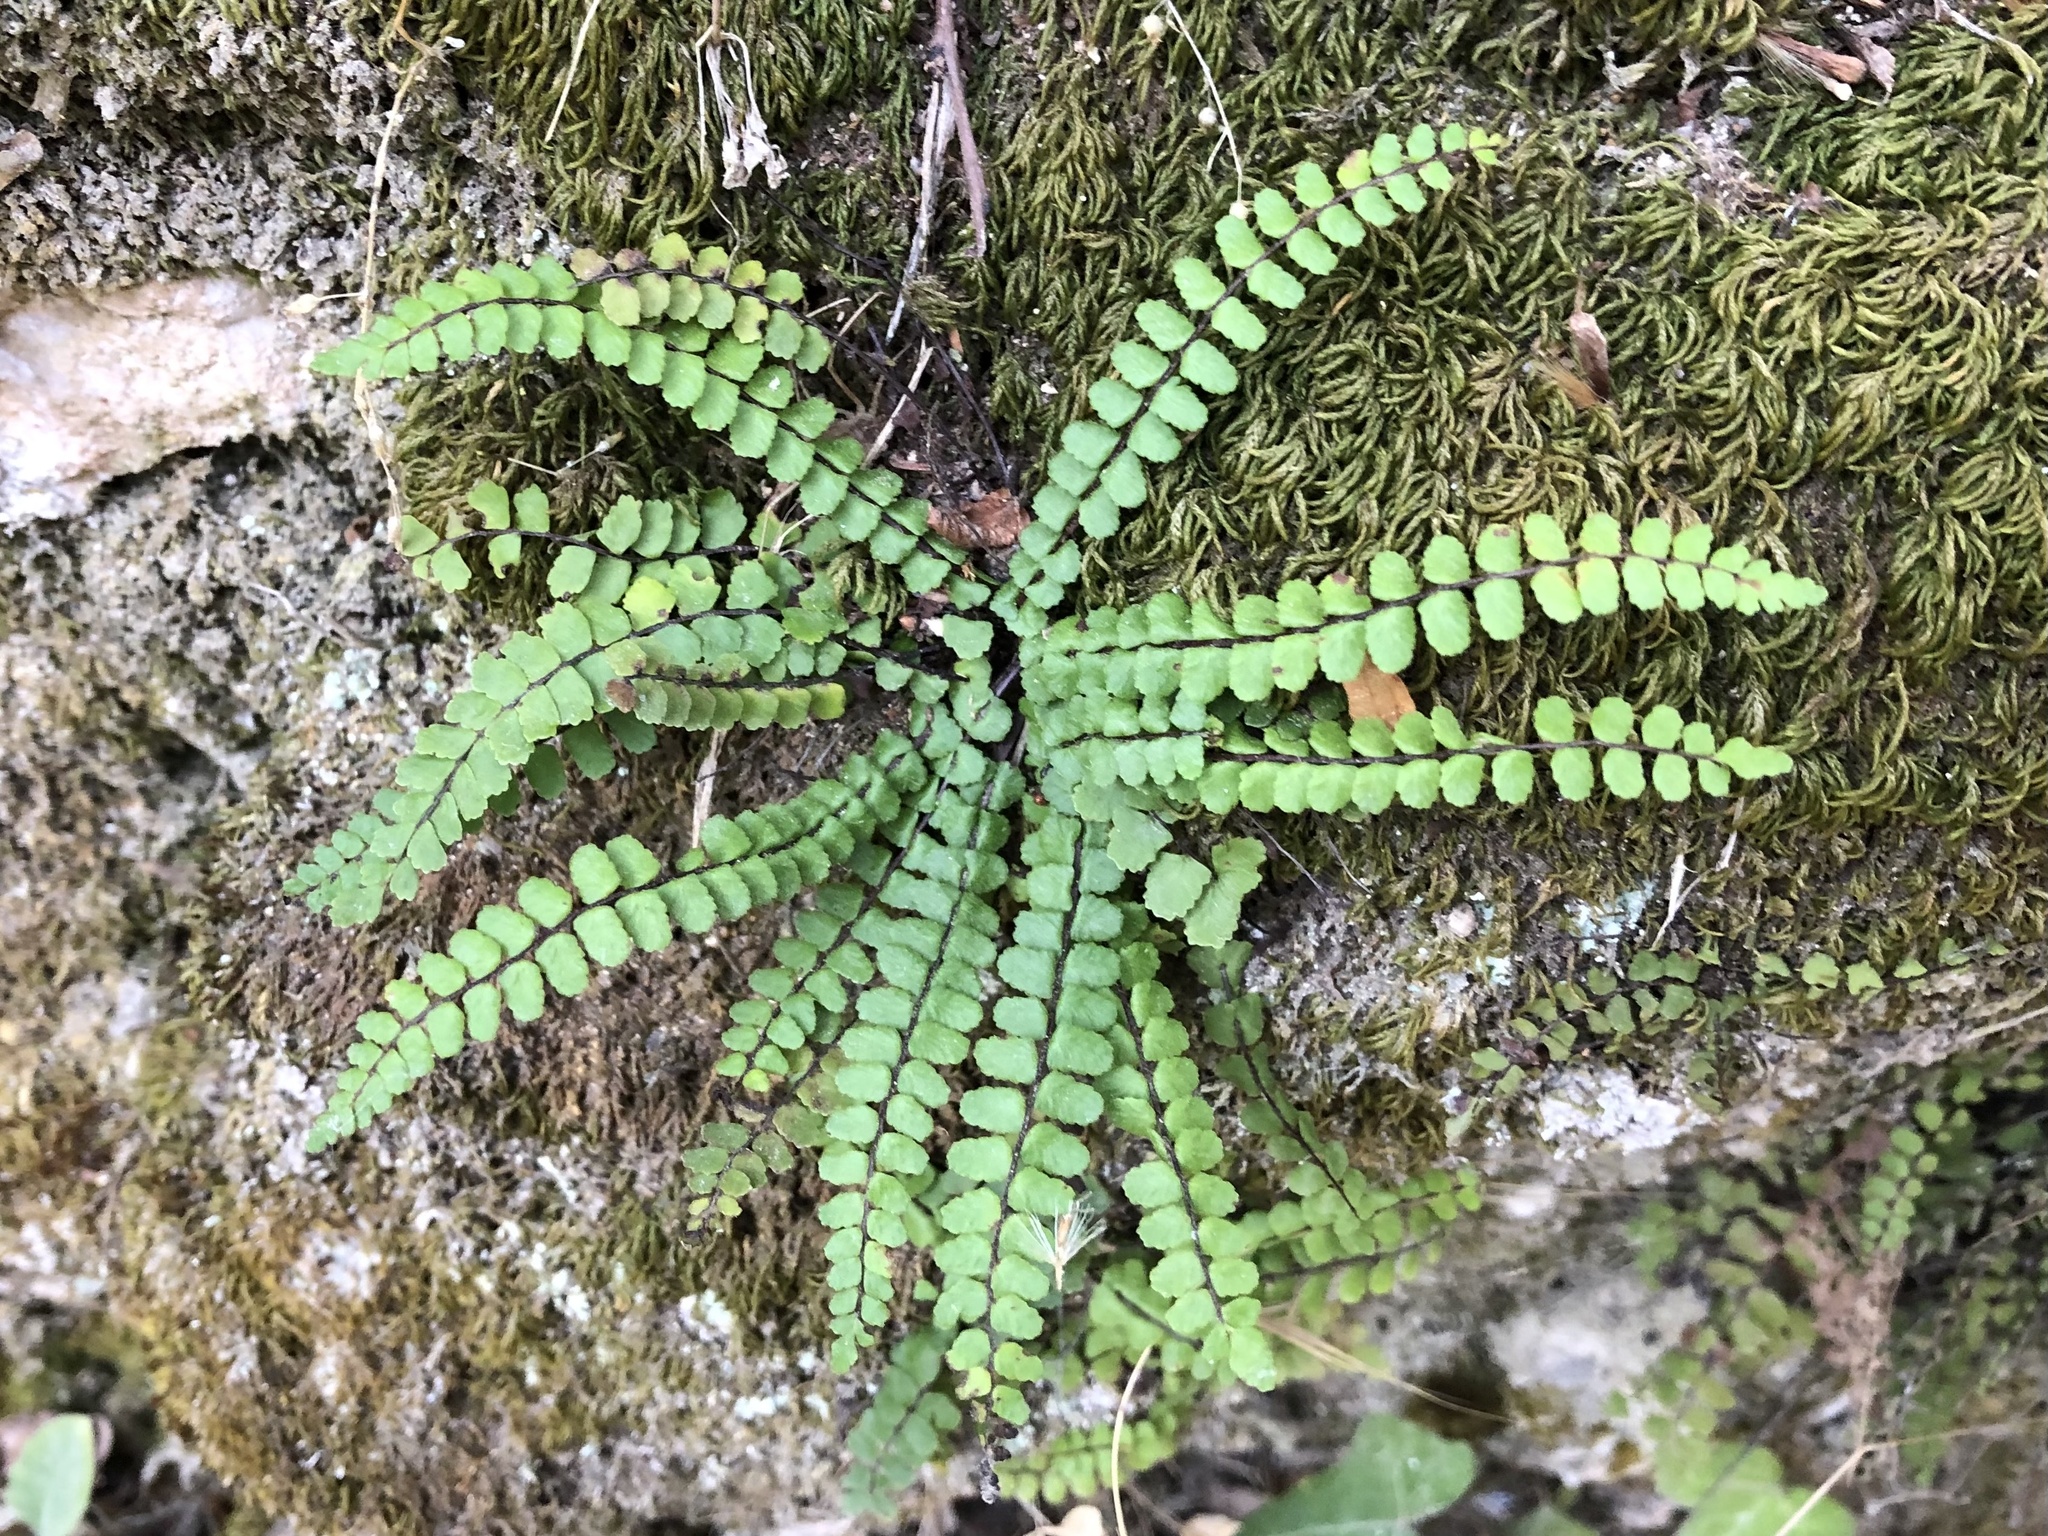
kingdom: Plantae
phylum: Tracheophyta
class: Polypodiopsida
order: Polypodiales
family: Aspleniaceae
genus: Asplenium
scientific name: Asplenium trichomanes
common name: Maidenhair spleenwort
